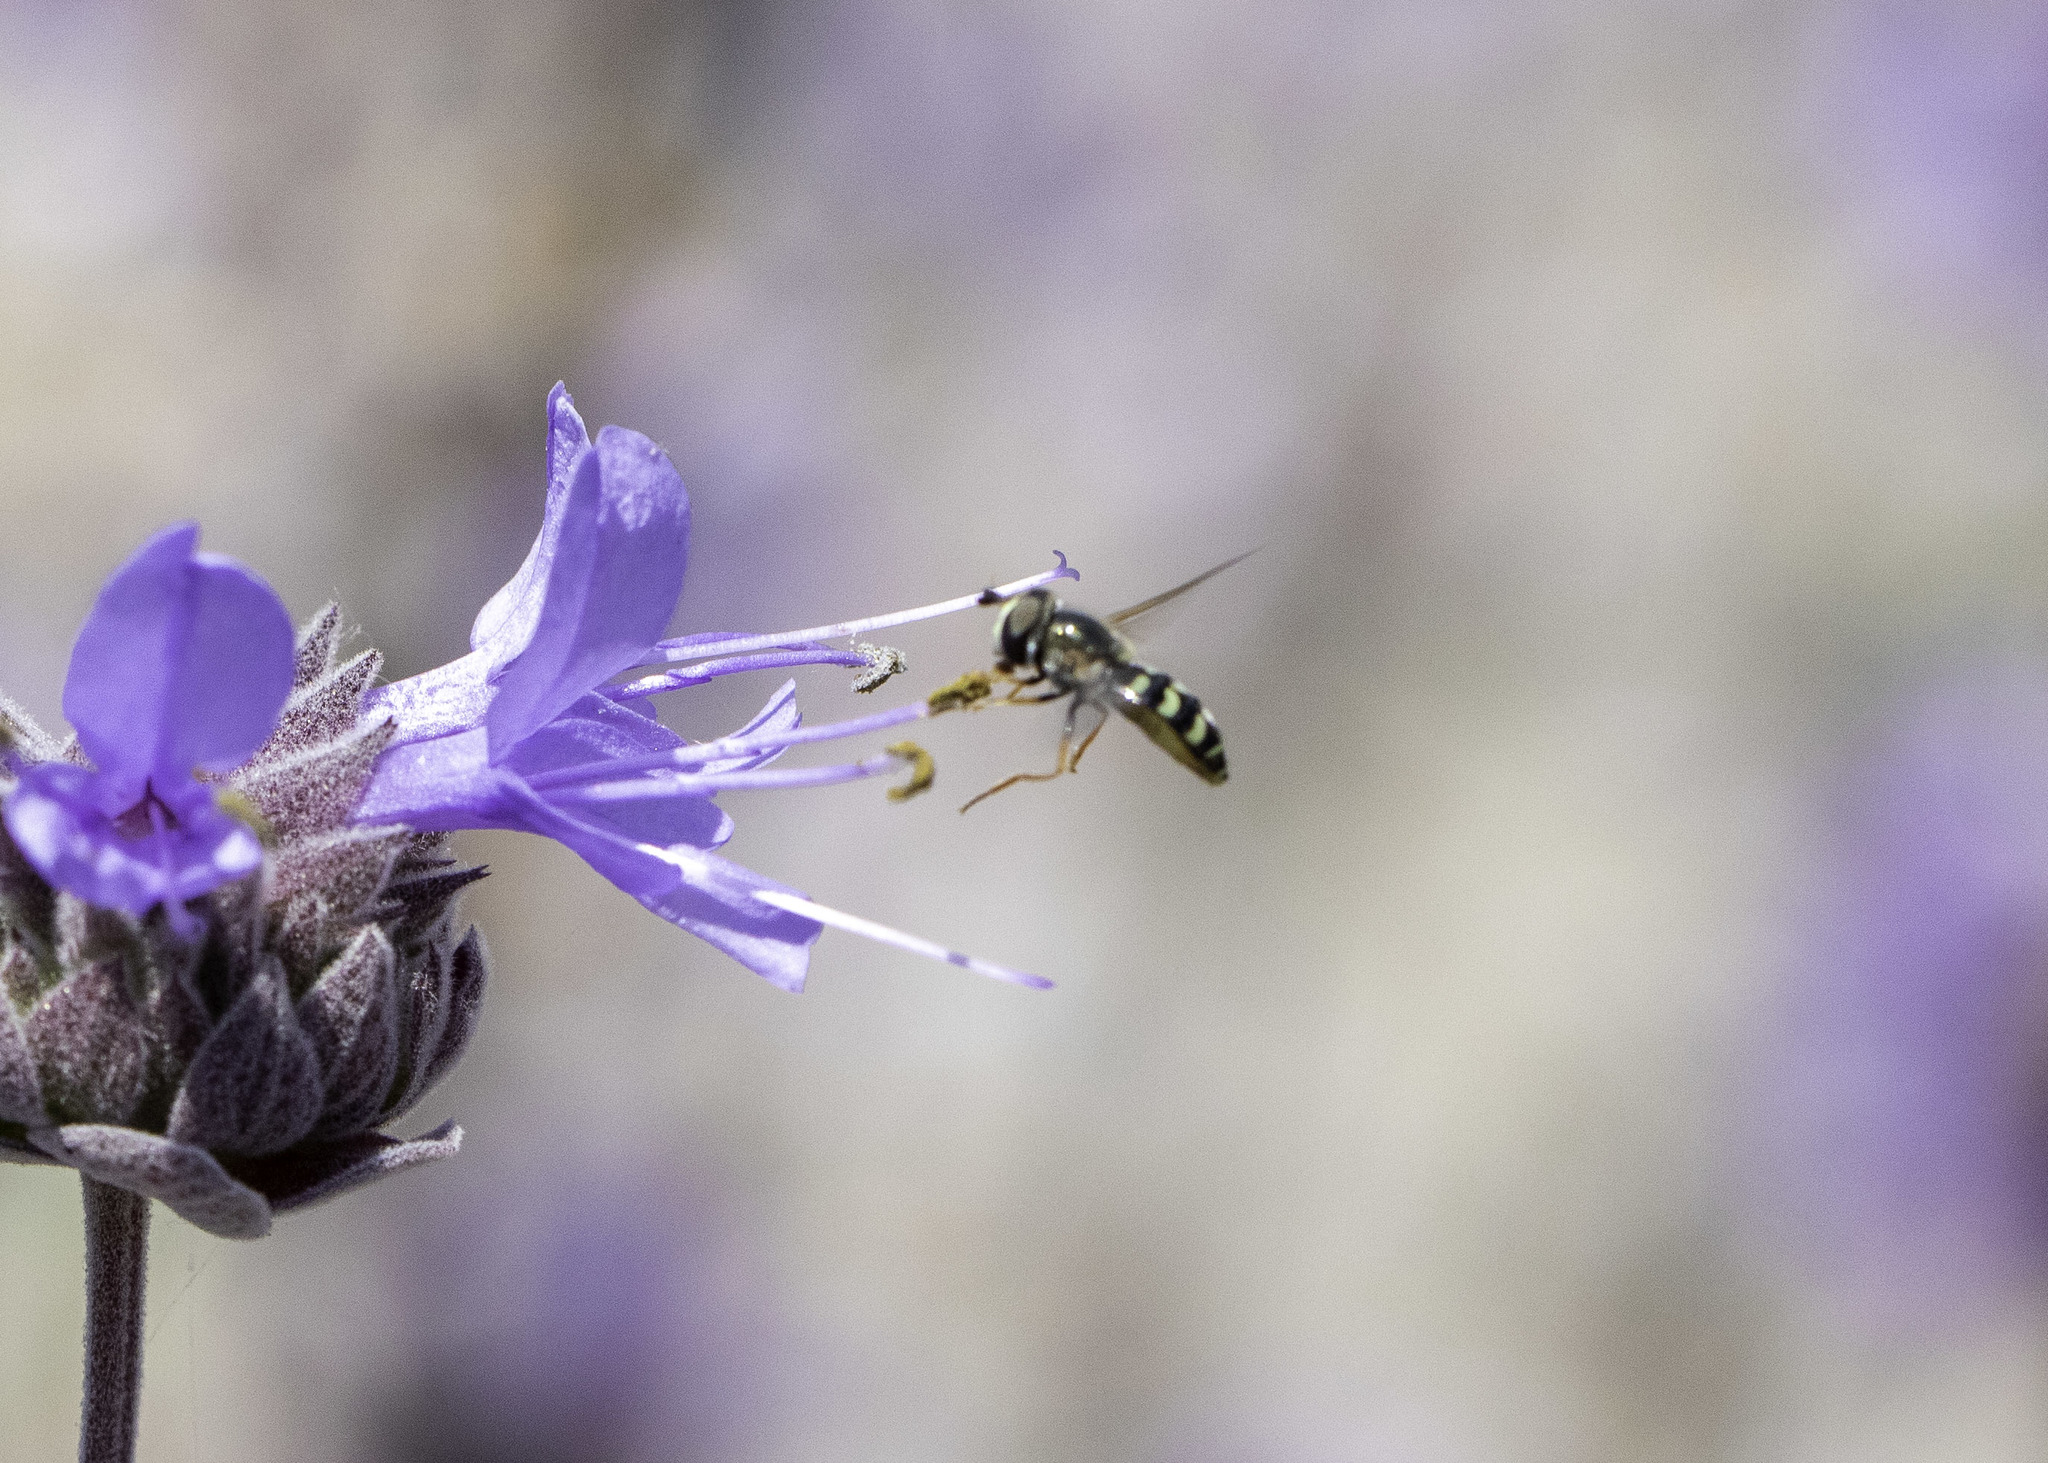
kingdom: Animalia
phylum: Arthropoda
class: Insecta
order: Diptera
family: Syrphidae
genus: Eupeodes
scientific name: Eupeodes volucris
